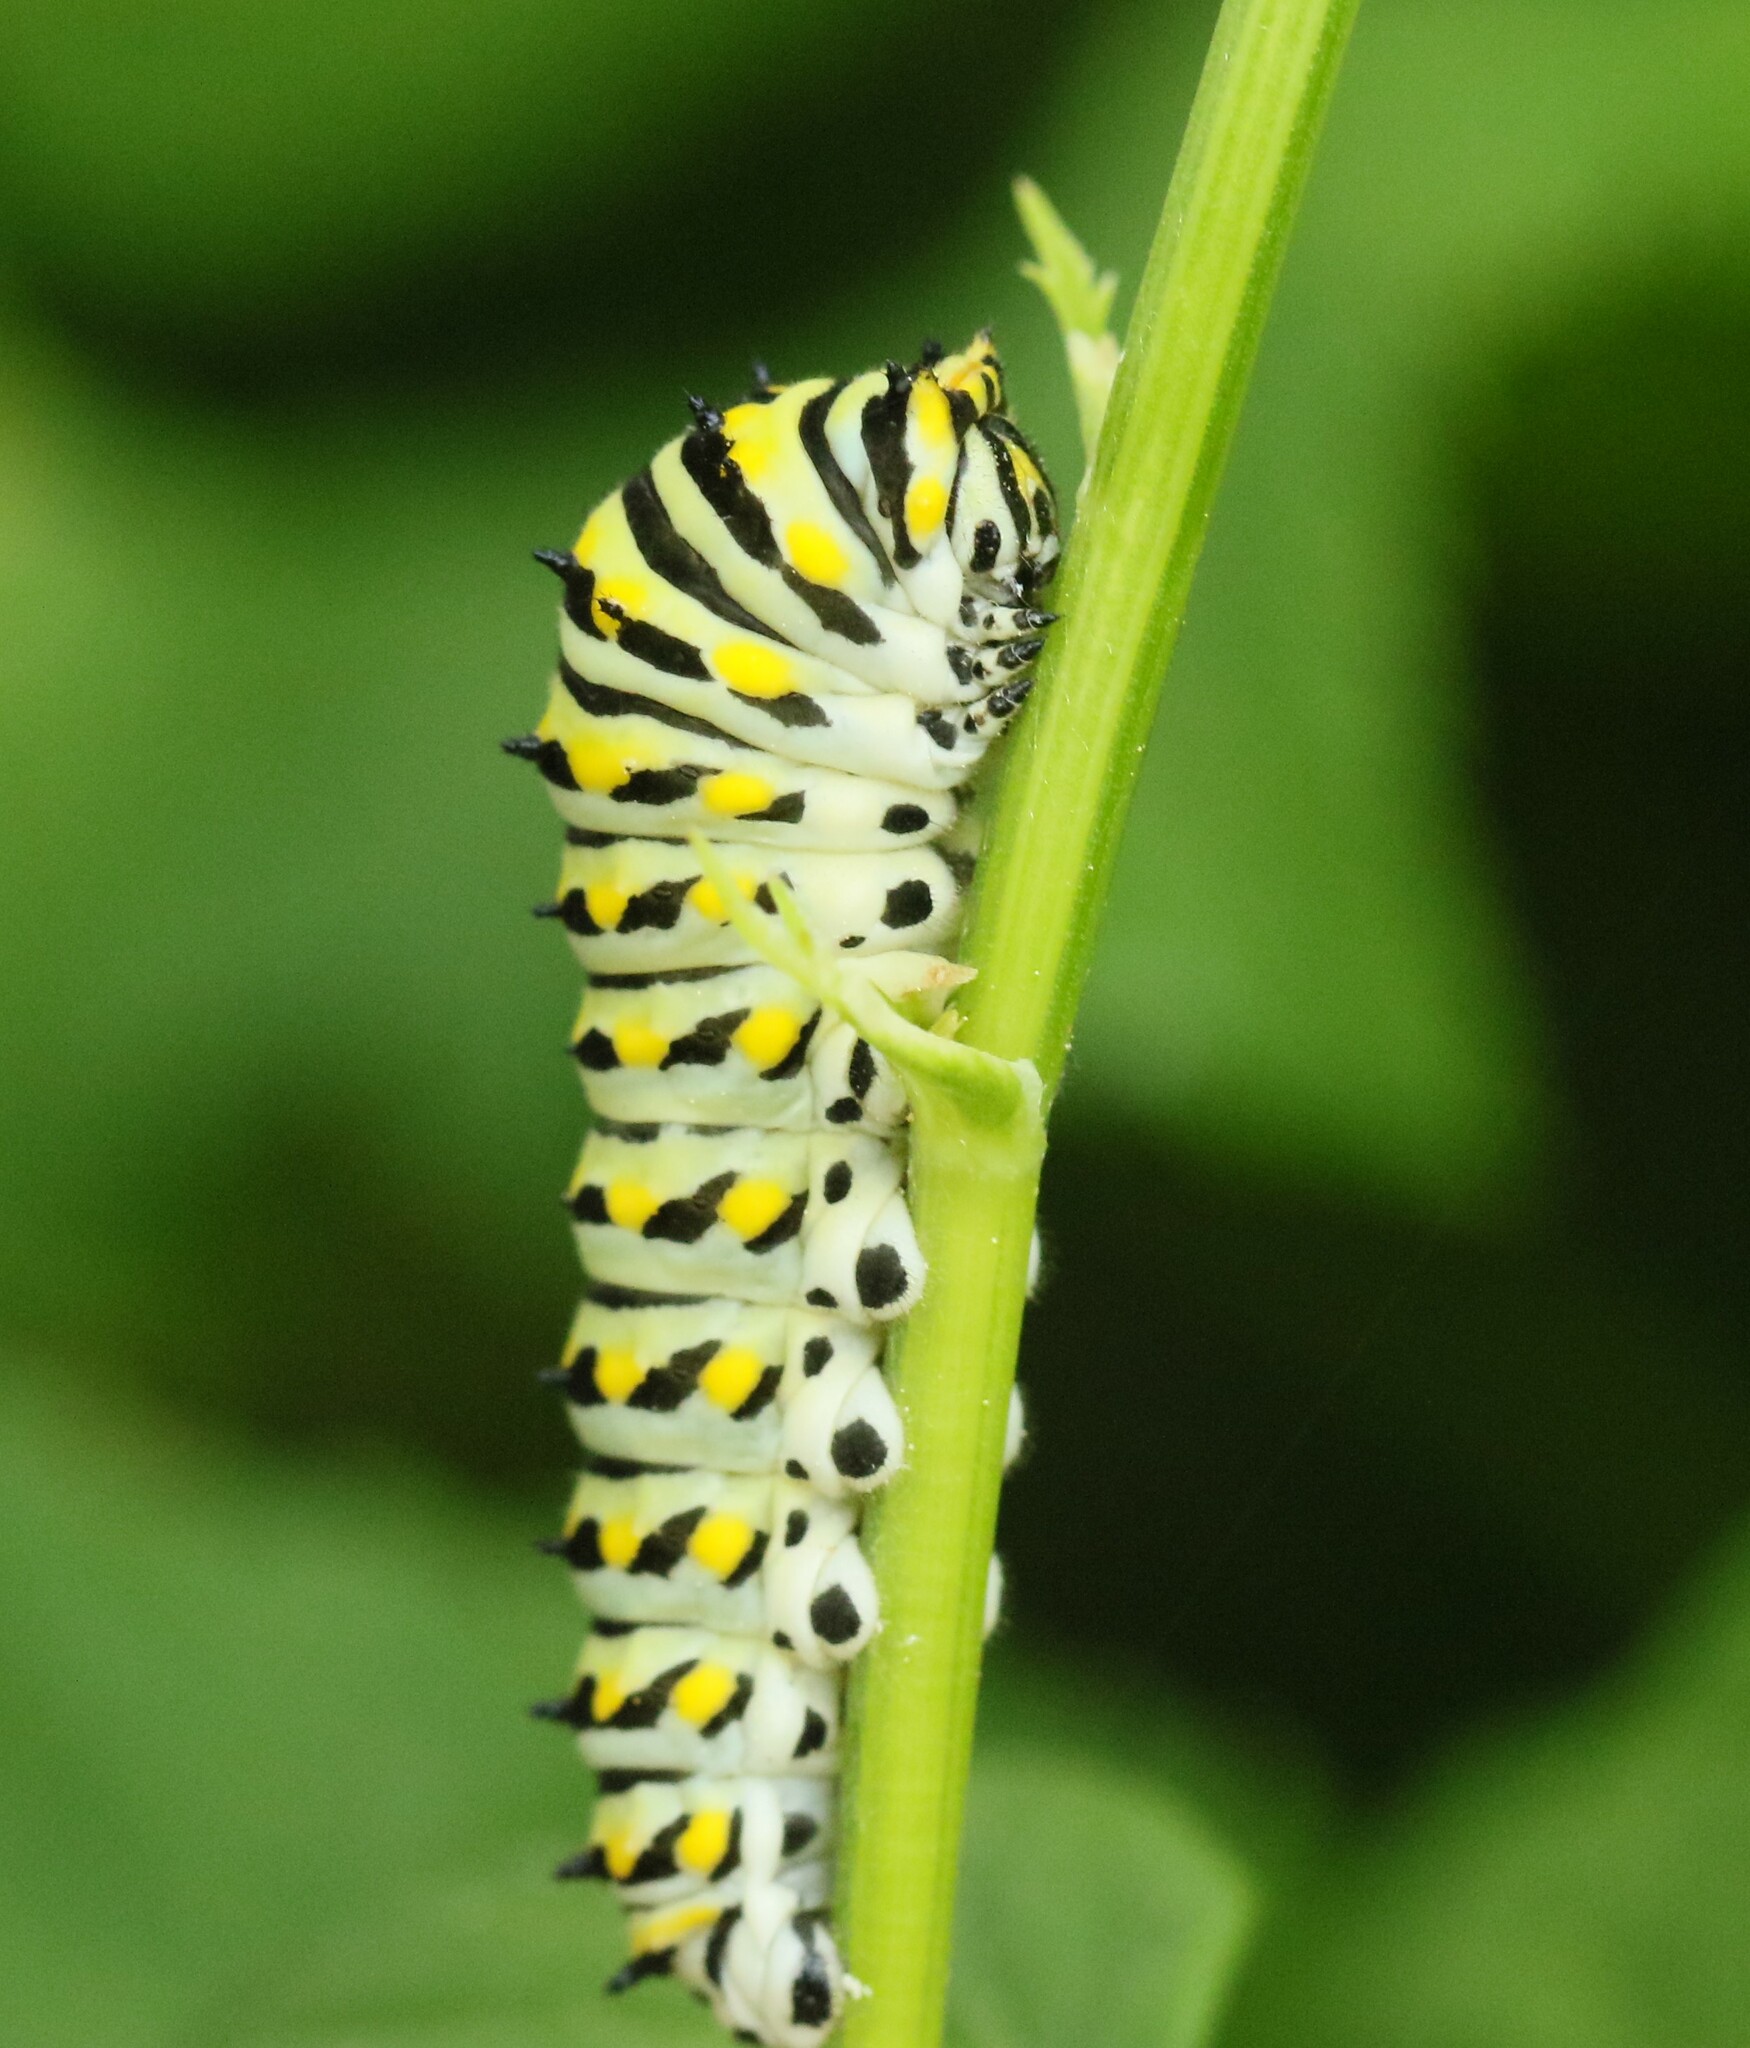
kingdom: Animalia
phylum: Arthropoda
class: Insecta
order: Lepidoptera
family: Papilionidae
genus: Papilio
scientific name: Papilio polyxenes
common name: Black swallowtail
